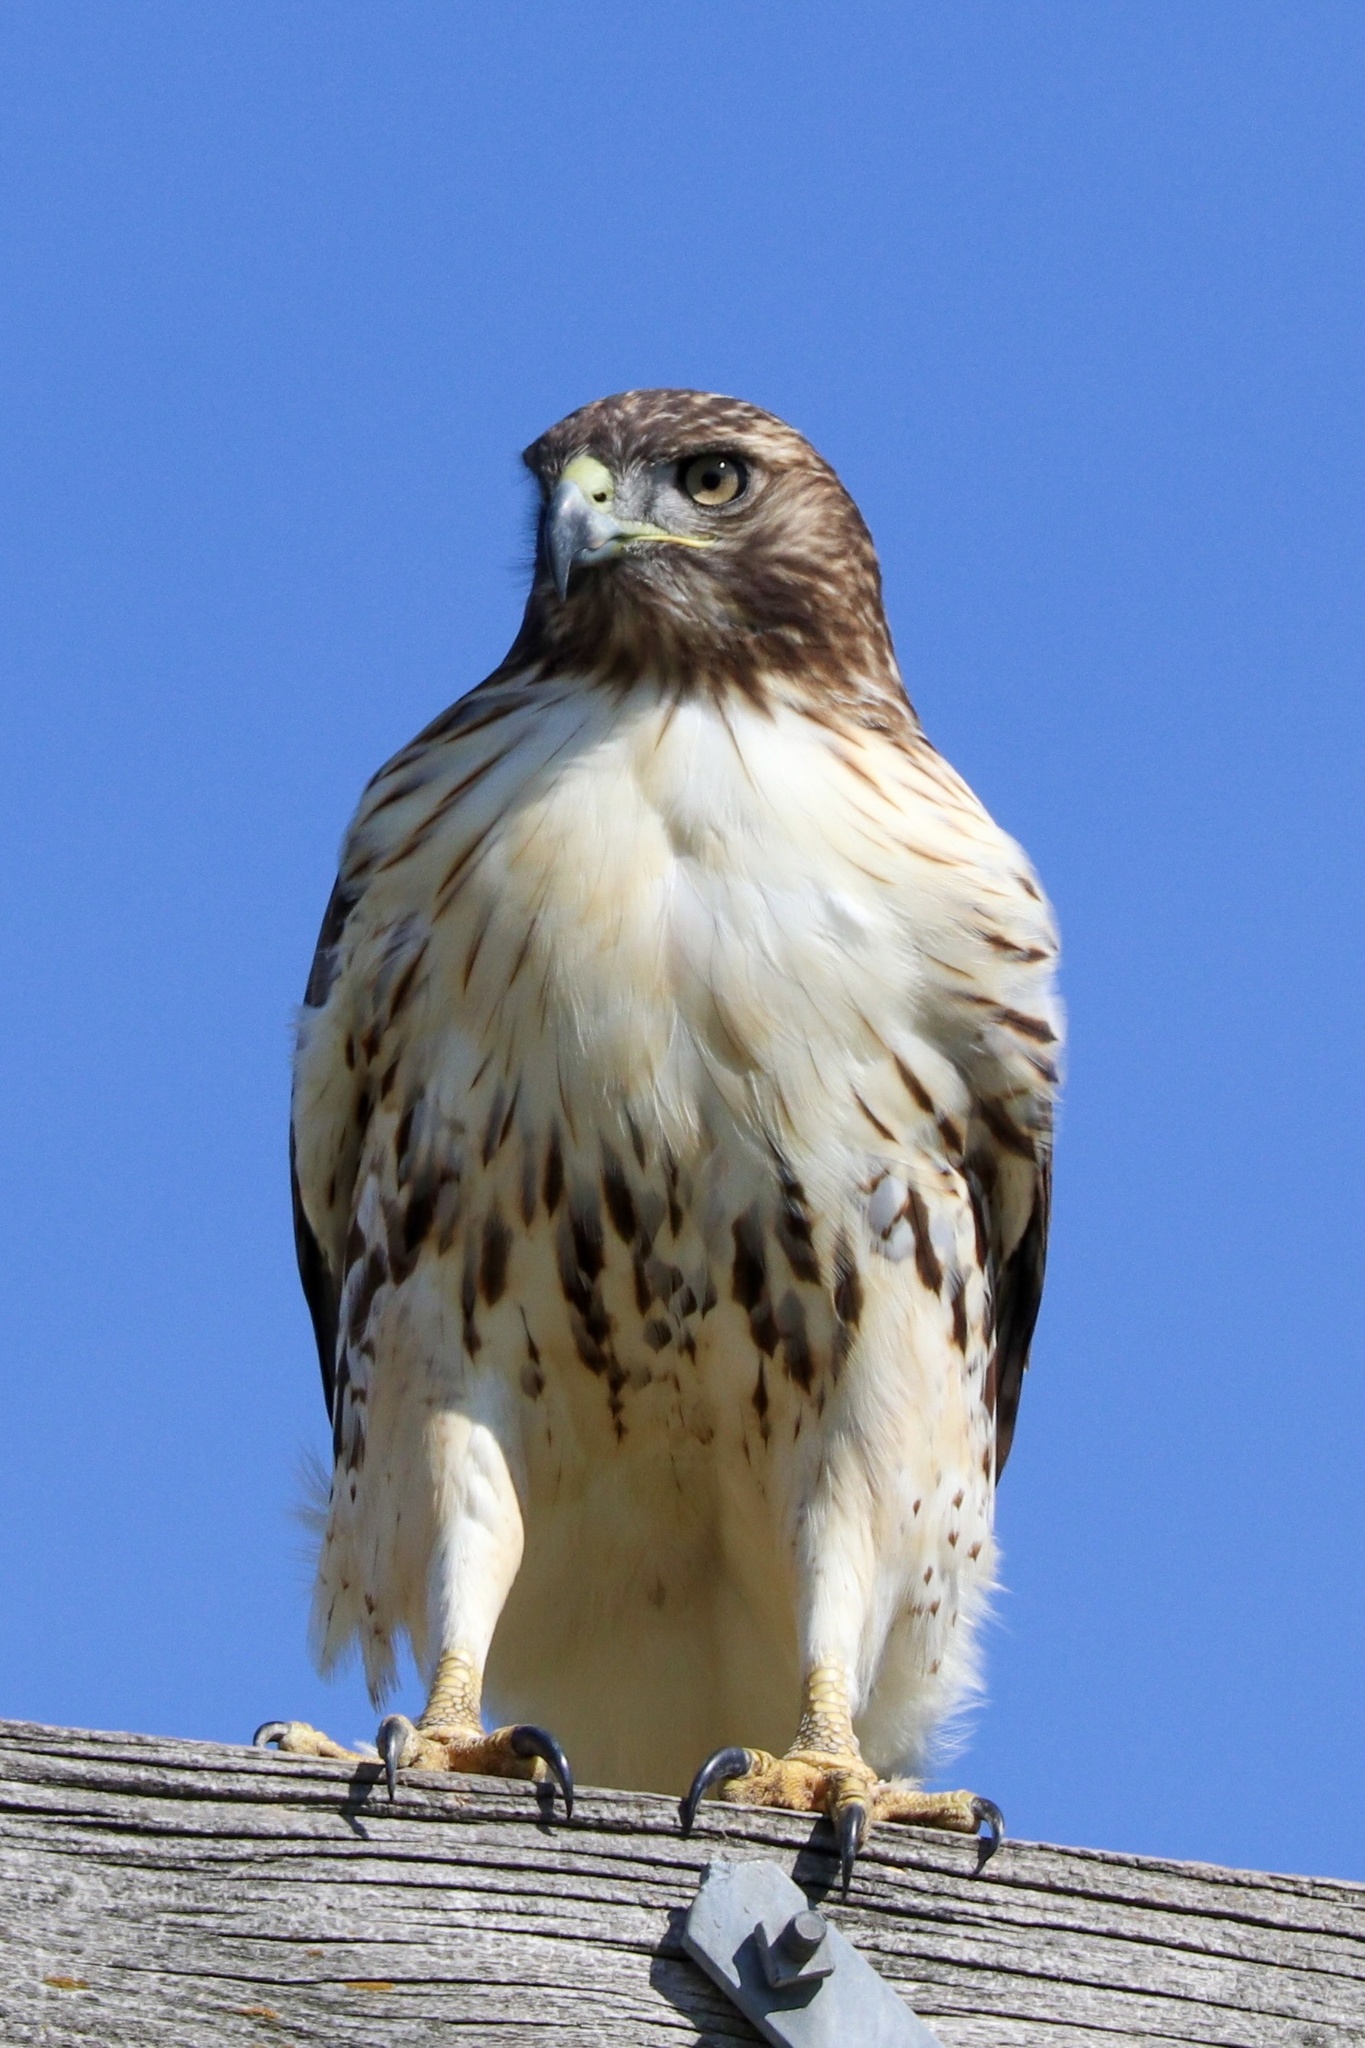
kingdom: Animalia
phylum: Chordata
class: Aves
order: Accipitriformes
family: Accipitridae
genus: Buteo
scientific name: Buteo jamaicensis
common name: Red-tailed hawk
